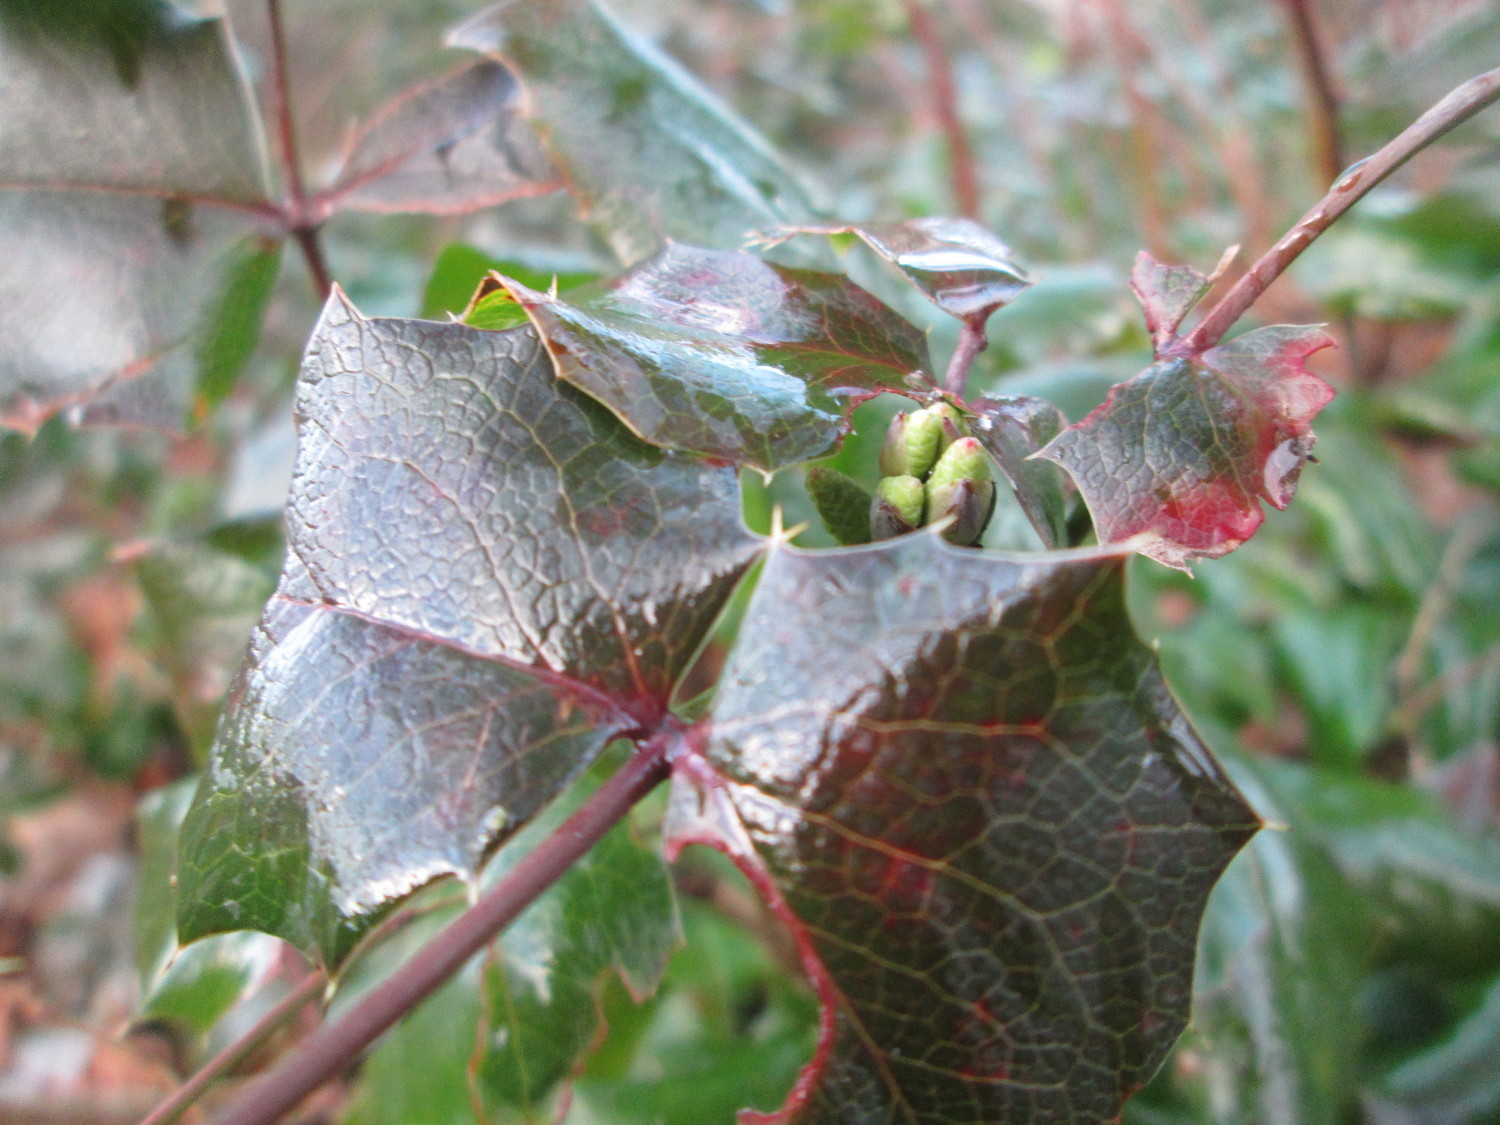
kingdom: Plantae
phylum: Tracheophyta
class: Magnoliopsida
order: Ranunculales
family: Berberidaceae
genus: Mahonia
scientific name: Mahonia aquifolium
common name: Oregon-grape
